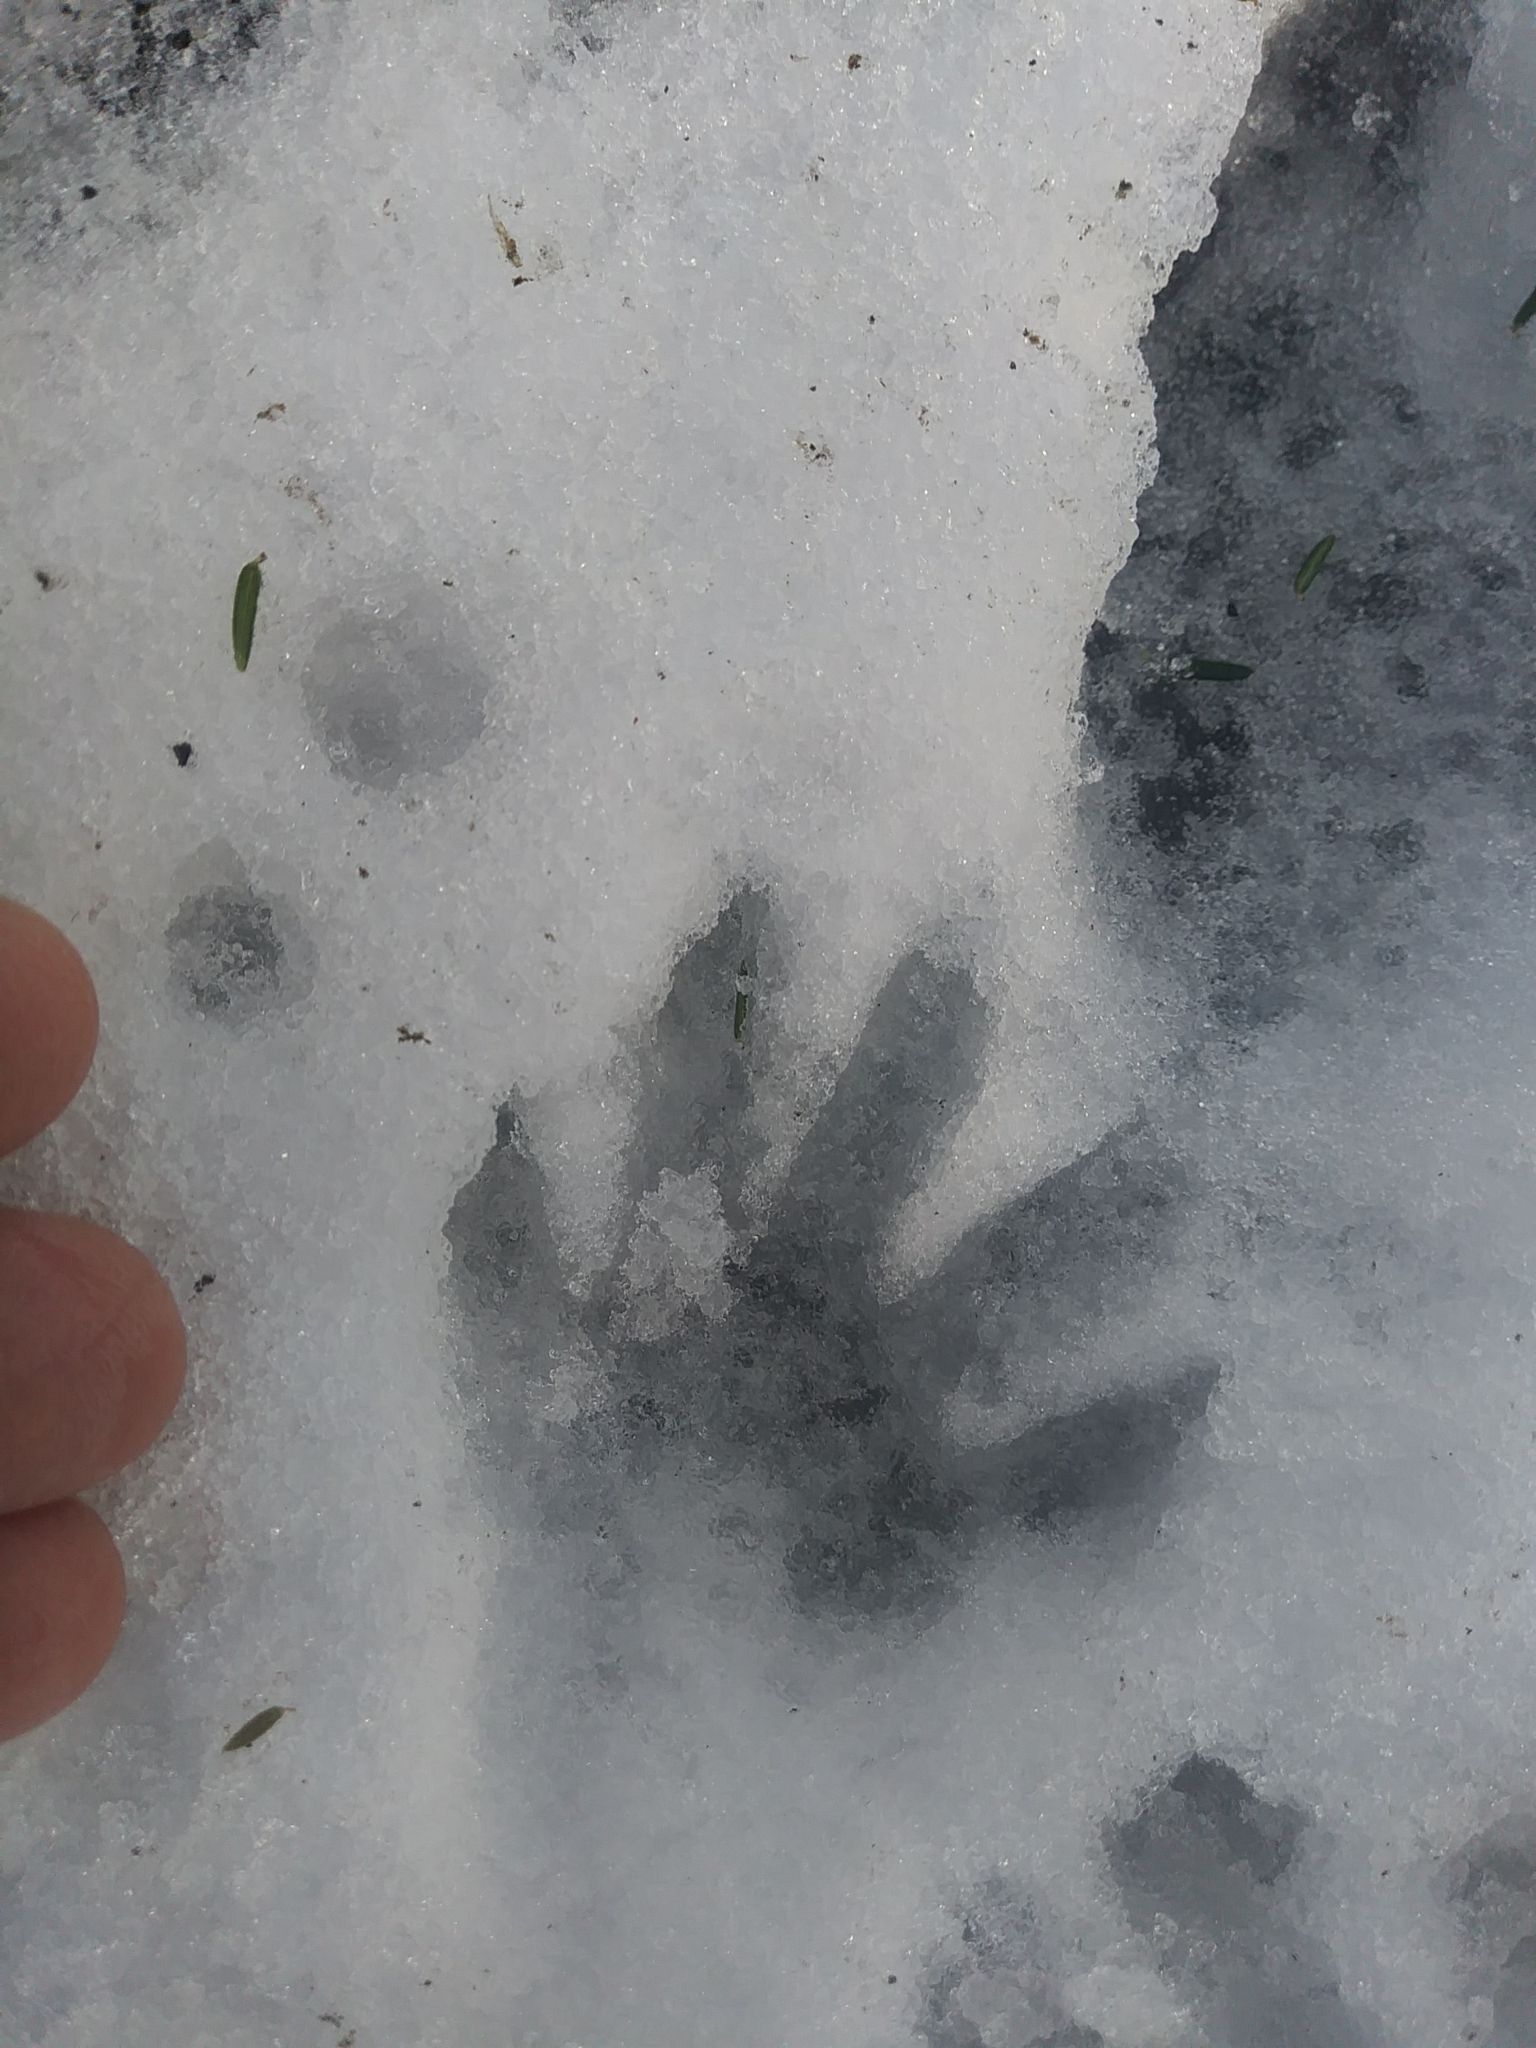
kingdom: Animalia
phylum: Chordata
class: Mammalia
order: Carnivora
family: Procyonidae
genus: Procyon
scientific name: Procyon lotor
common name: Raccoon
